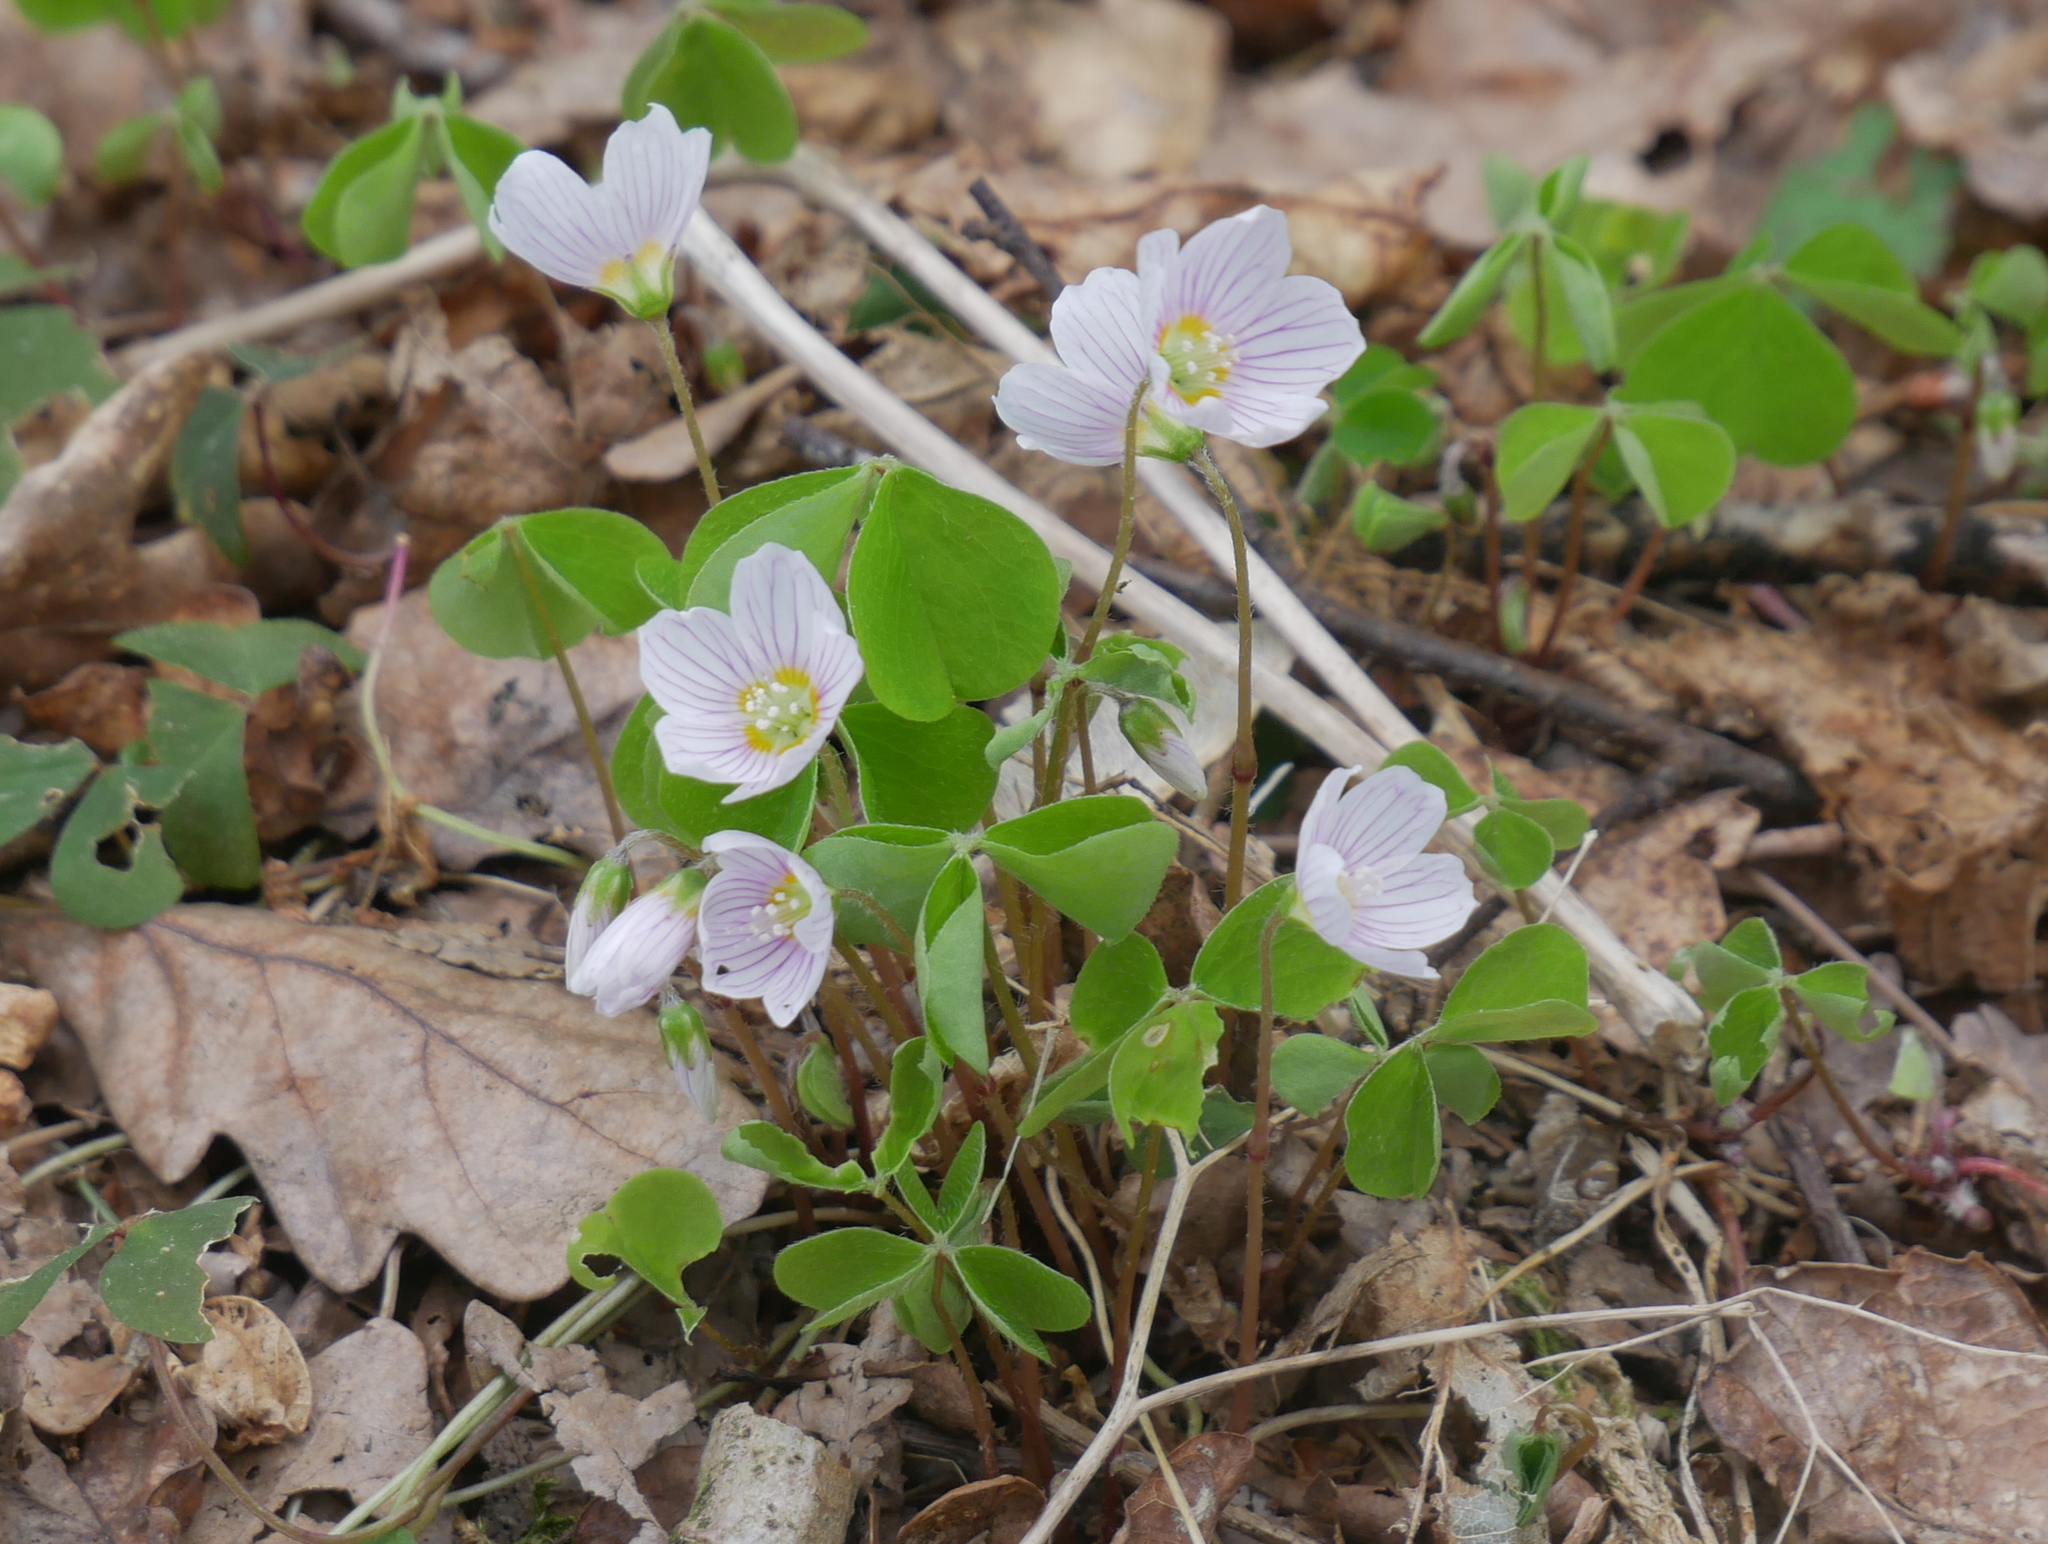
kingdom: Plantae
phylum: Tracheophyta
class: Magnoliopsida
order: Oxalidales
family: Oxalidaceae
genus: Oxalis
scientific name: Oxalis acetosella
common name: Wood-sorrel
